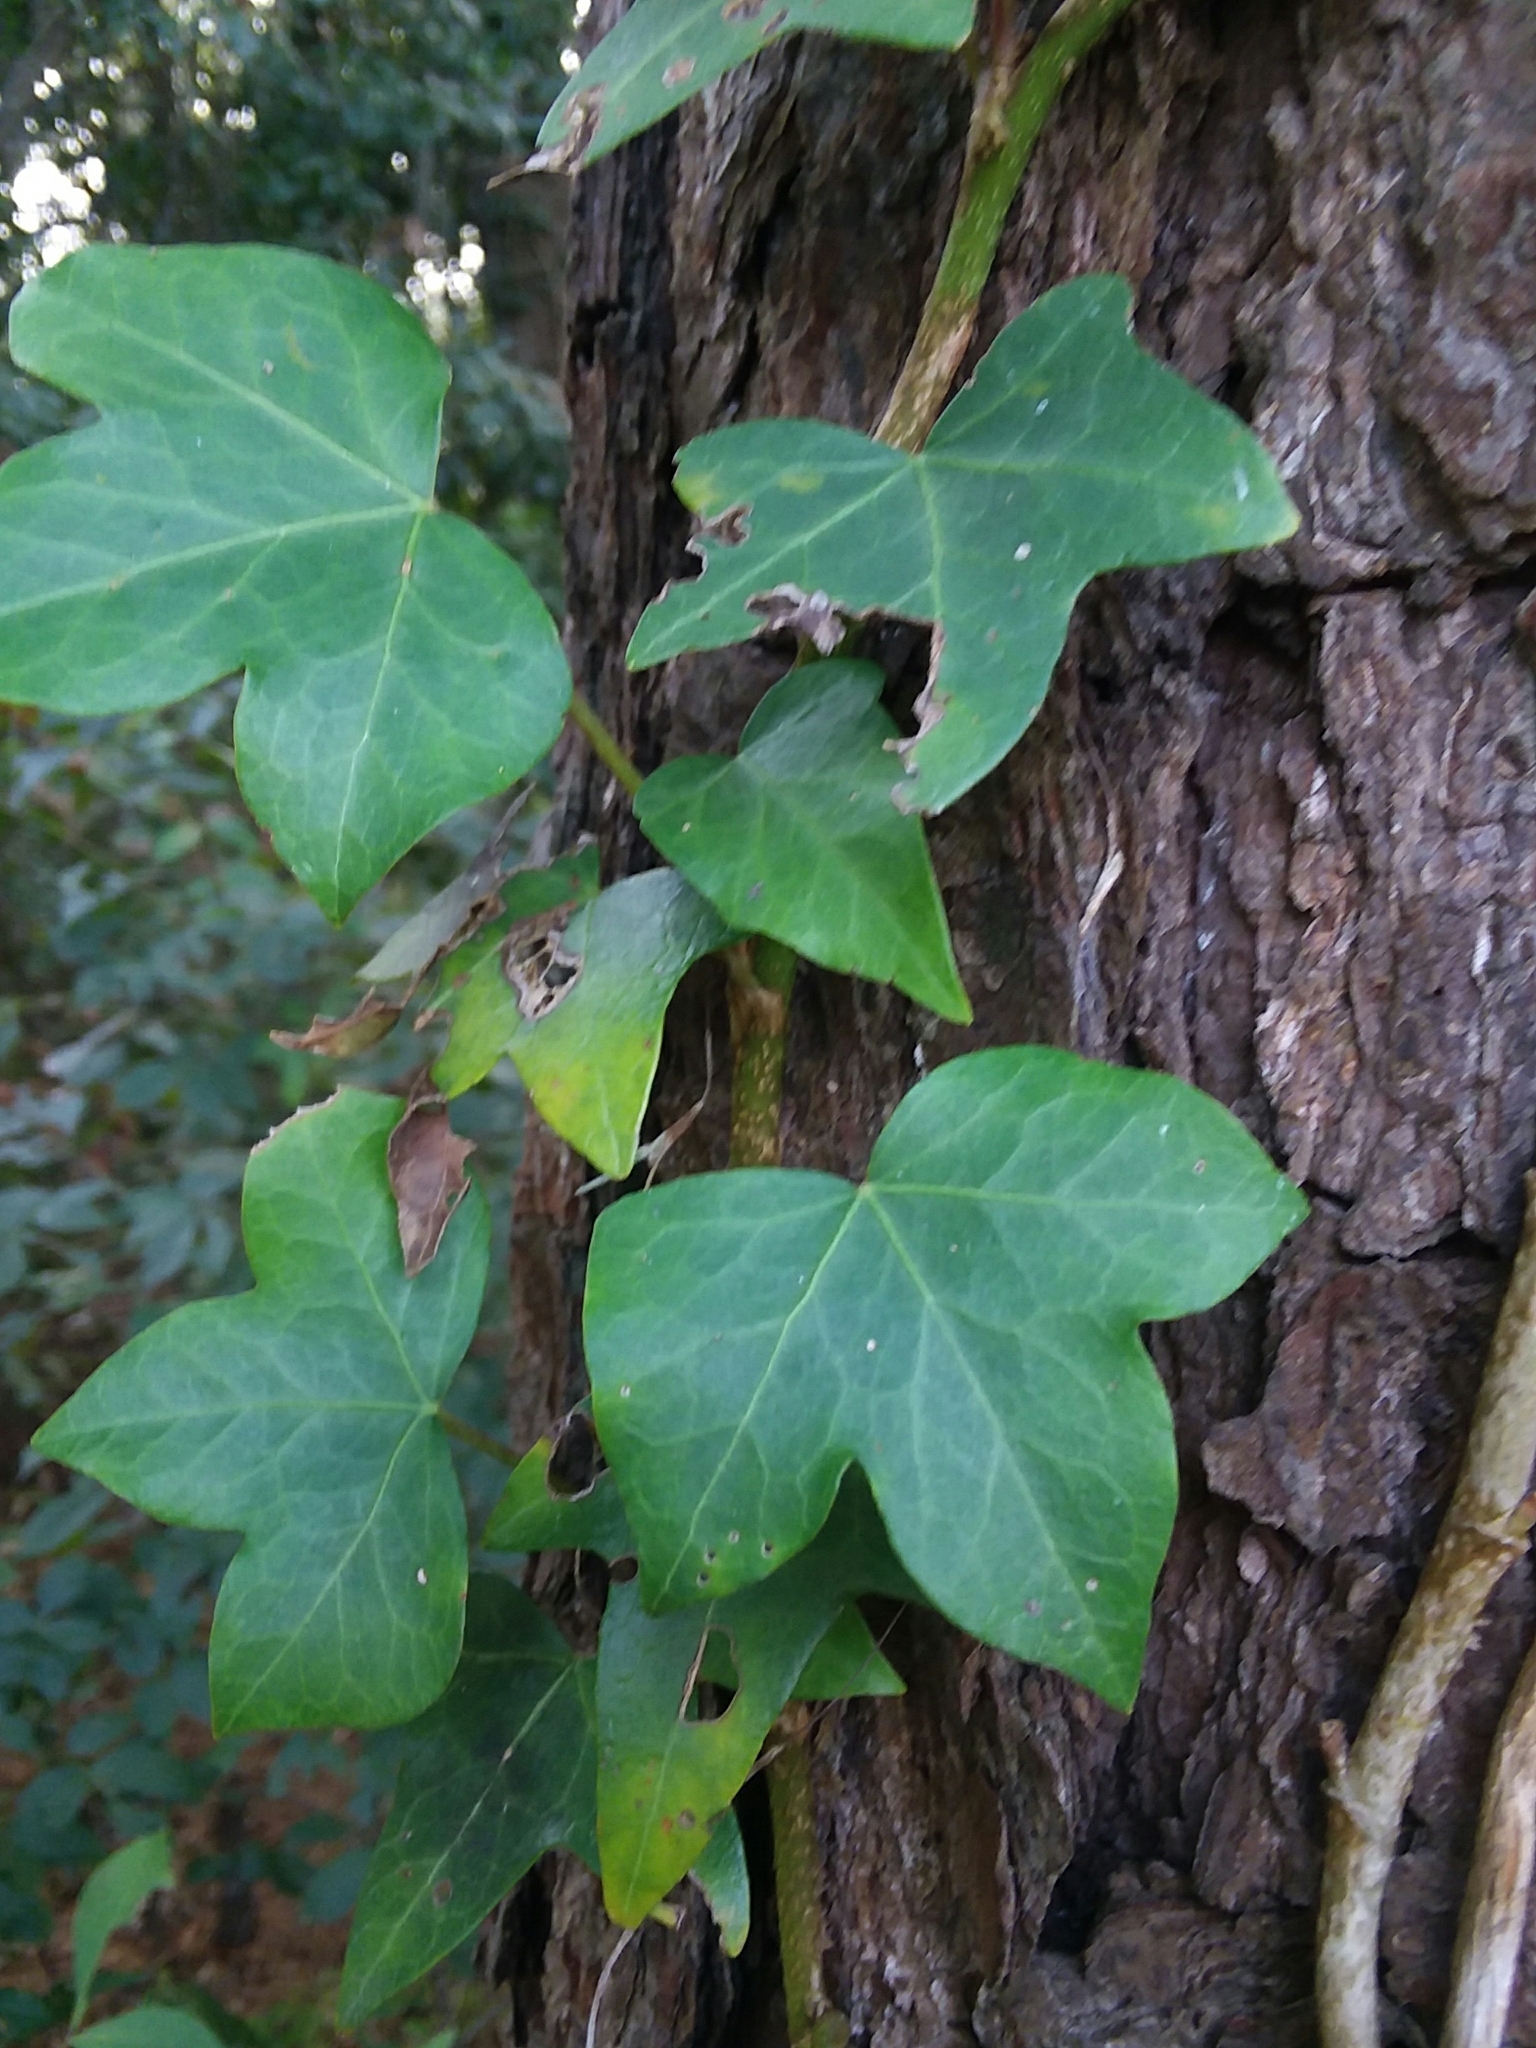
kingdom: Plantae
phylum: Tracheophyta
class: Magnoliopsida
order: Apiales
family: Araliaceae
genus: Hedera
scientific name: Hedera helix
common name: Ivy
